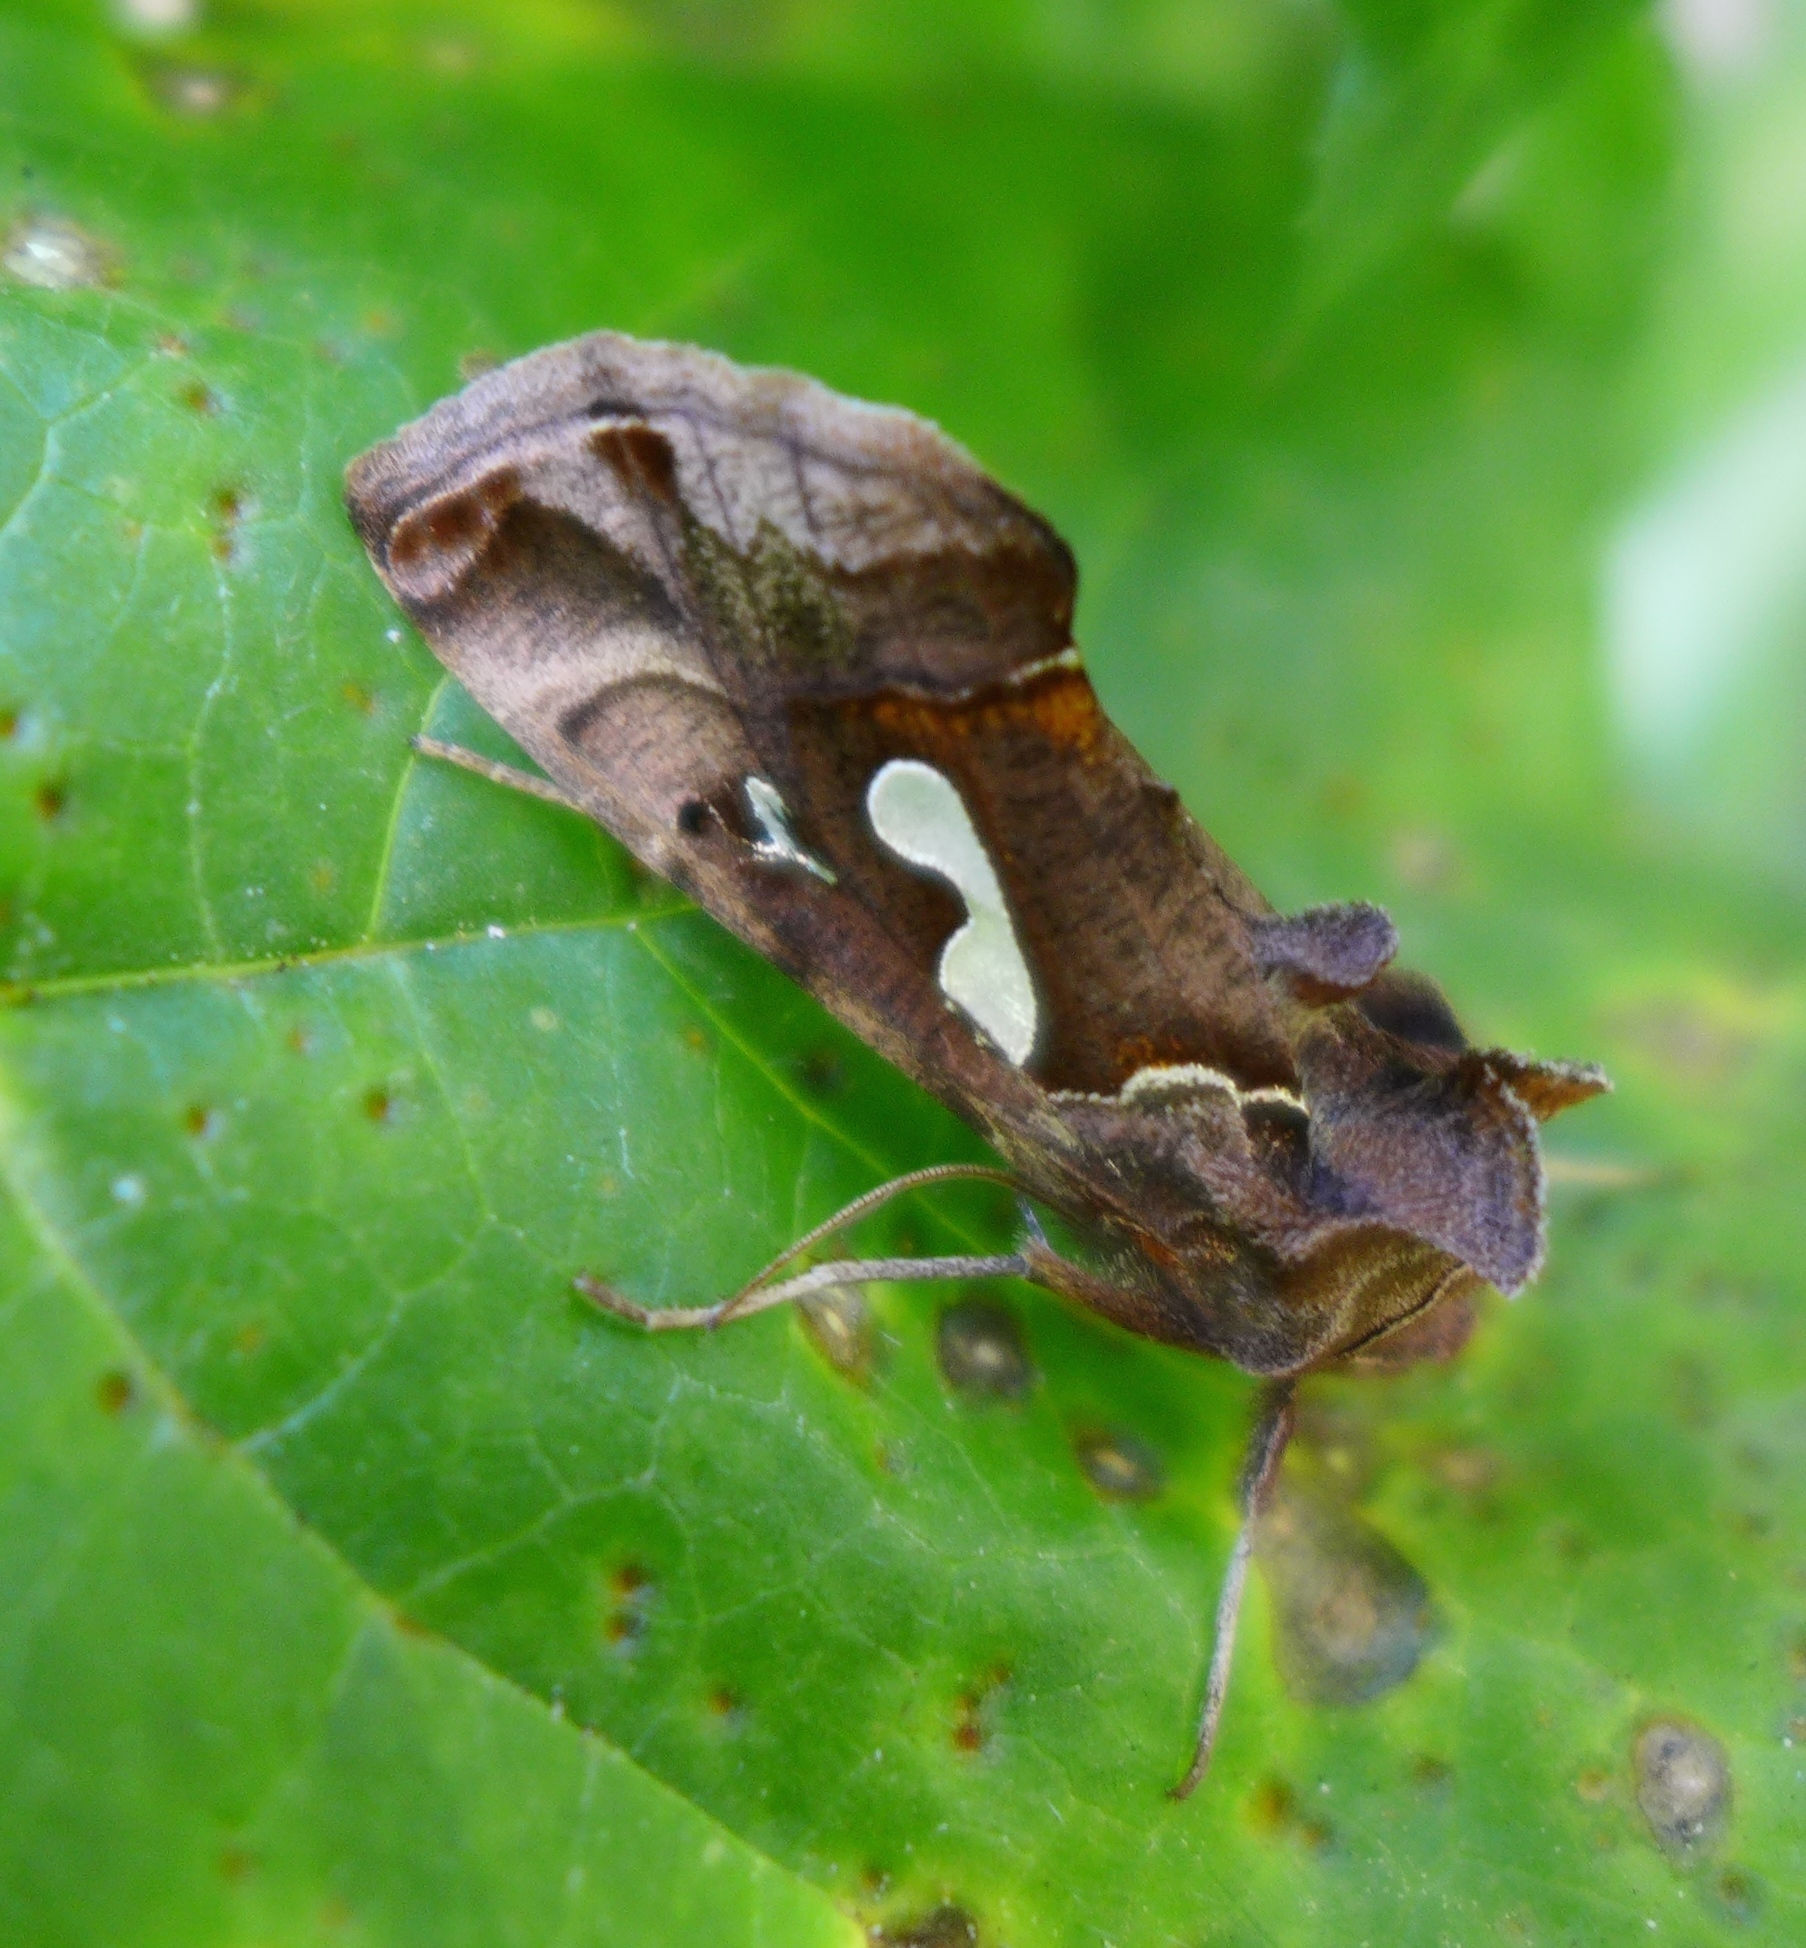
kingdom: Animalia
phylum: Arthropoda
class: Insecta
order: Lepidoptera
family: Noctuidae
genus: Megalographa
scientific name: Megalographa biloba
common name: Cutworm
